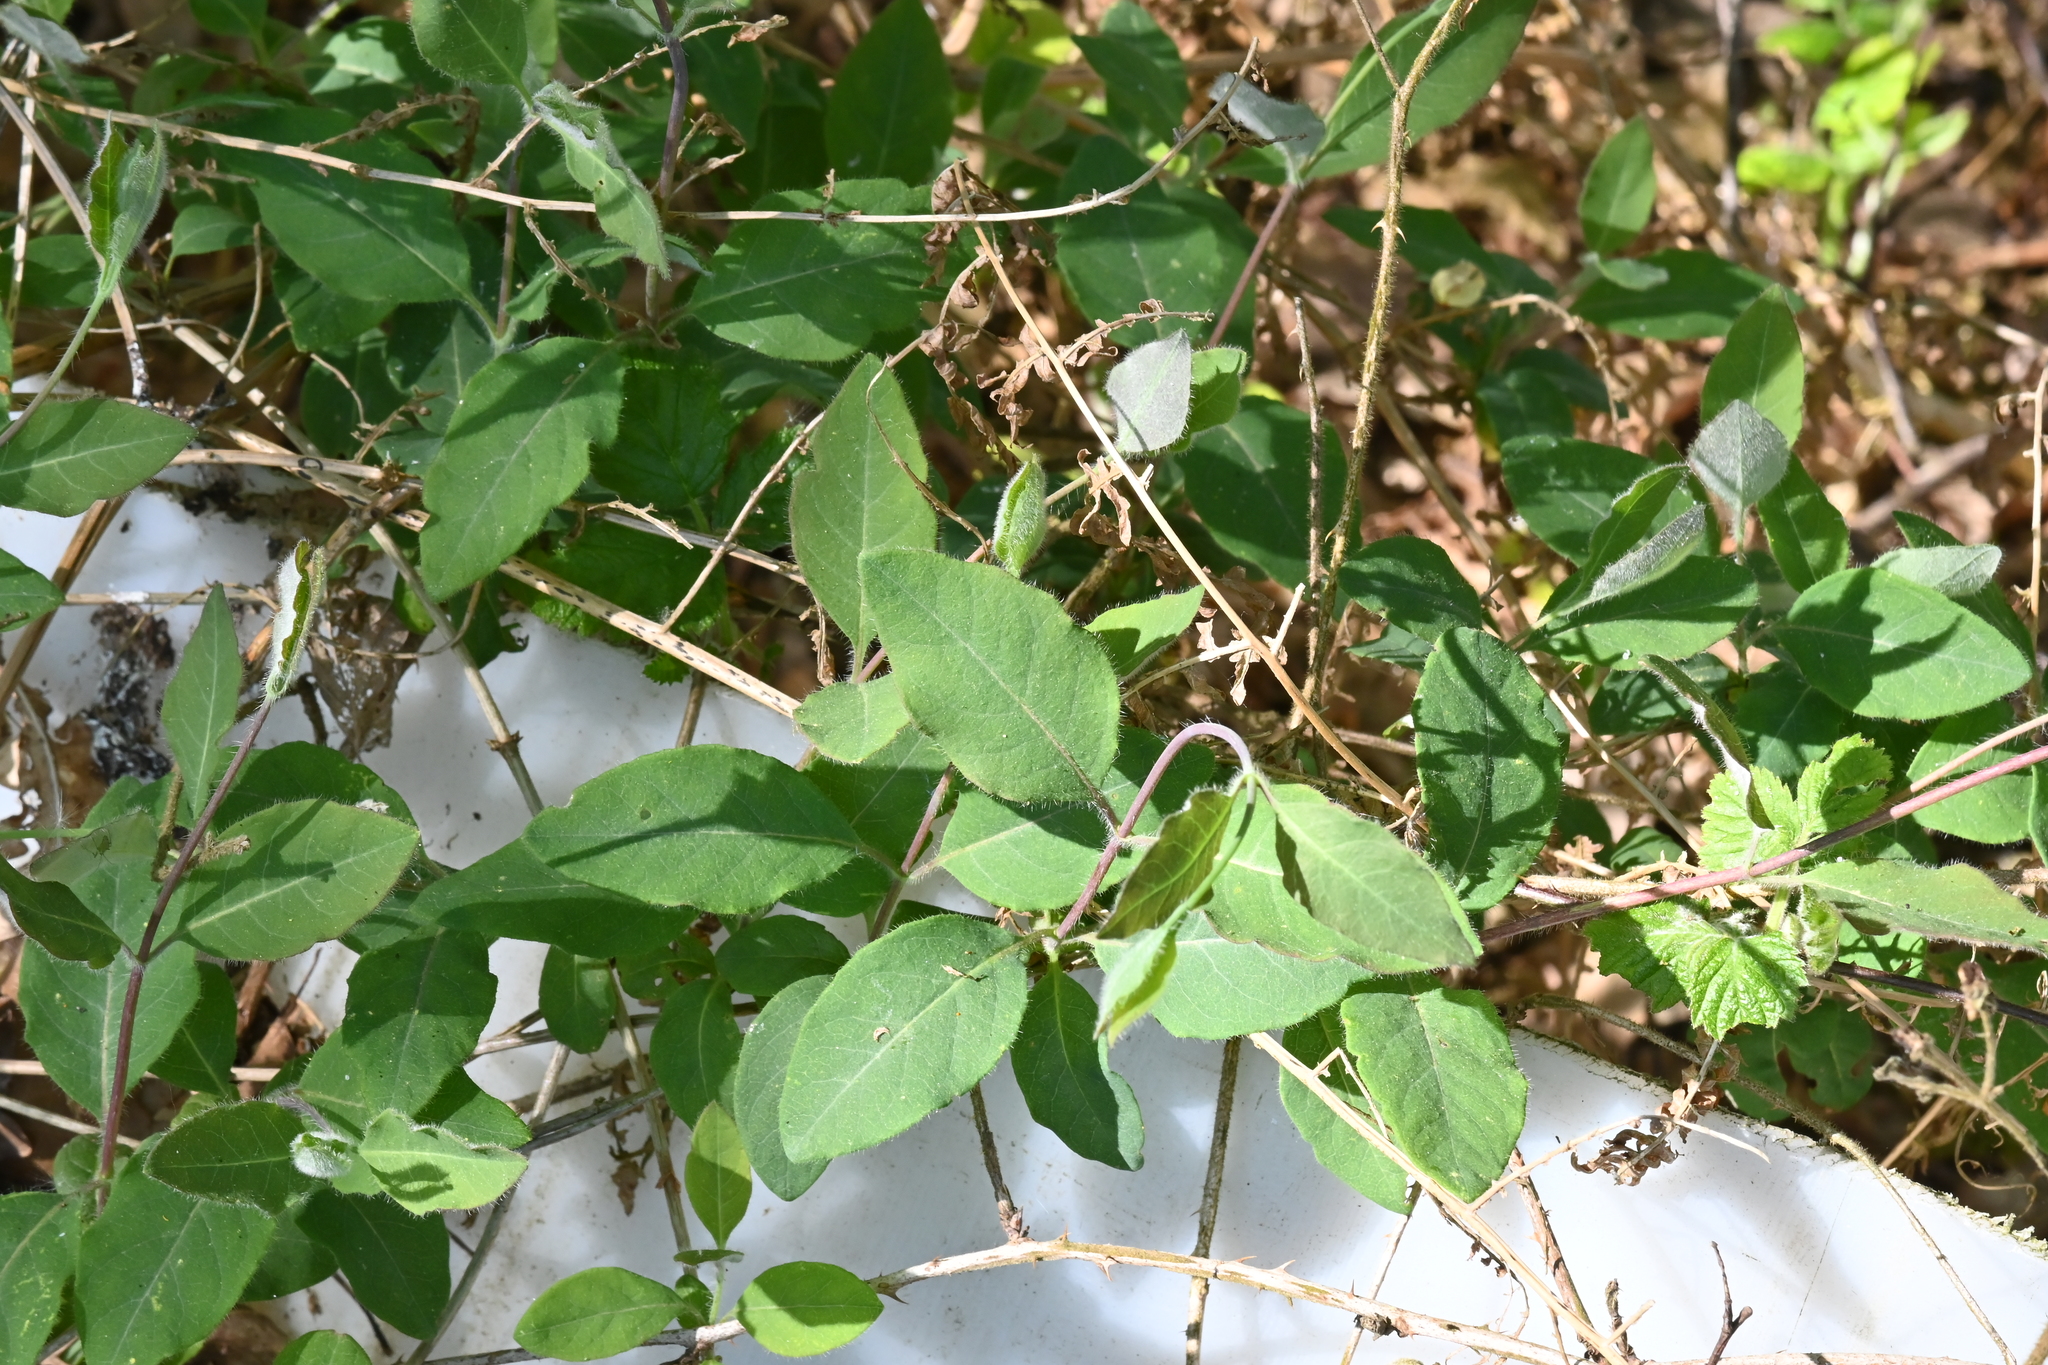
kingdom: Plantae
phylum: Tracheophyta
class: Magnoliopsida
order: Dipsacales
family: Caprifoliaceae
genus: Lonicera
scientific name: Lonicera periclymenum
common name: European honeysuckle
